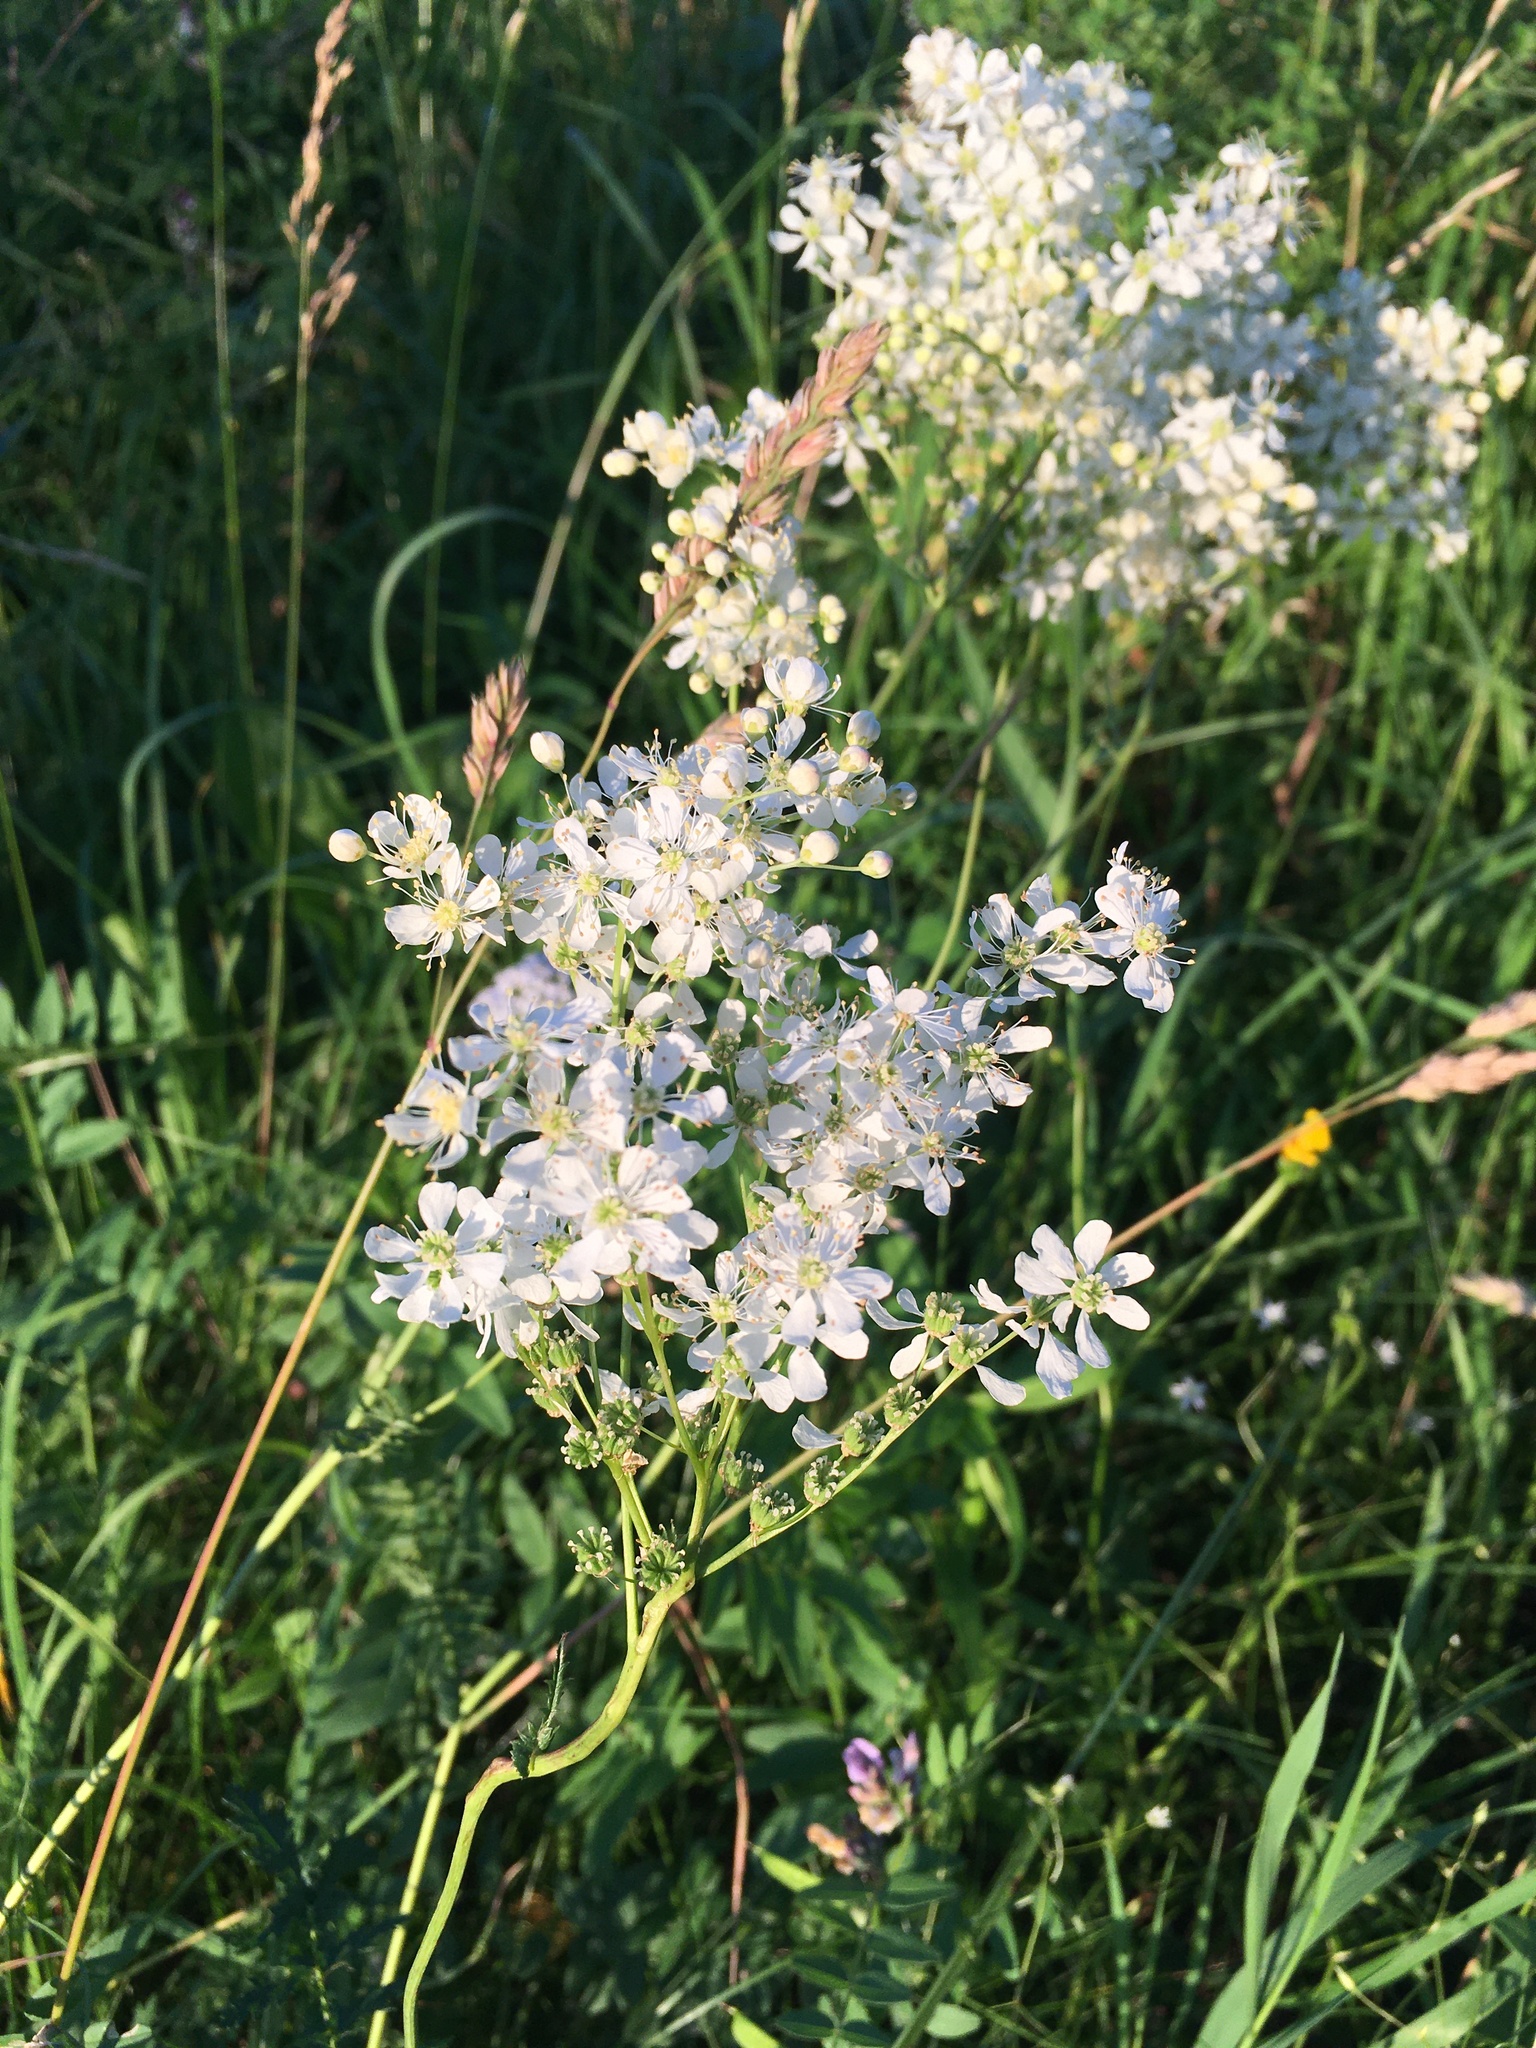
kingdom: Plantae
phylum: Tracheophyta
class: Magnoliopsida
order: Rosales
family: Rosaceae
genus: Filipendula
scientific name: Filipendula vulgaris
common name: Dropwort
